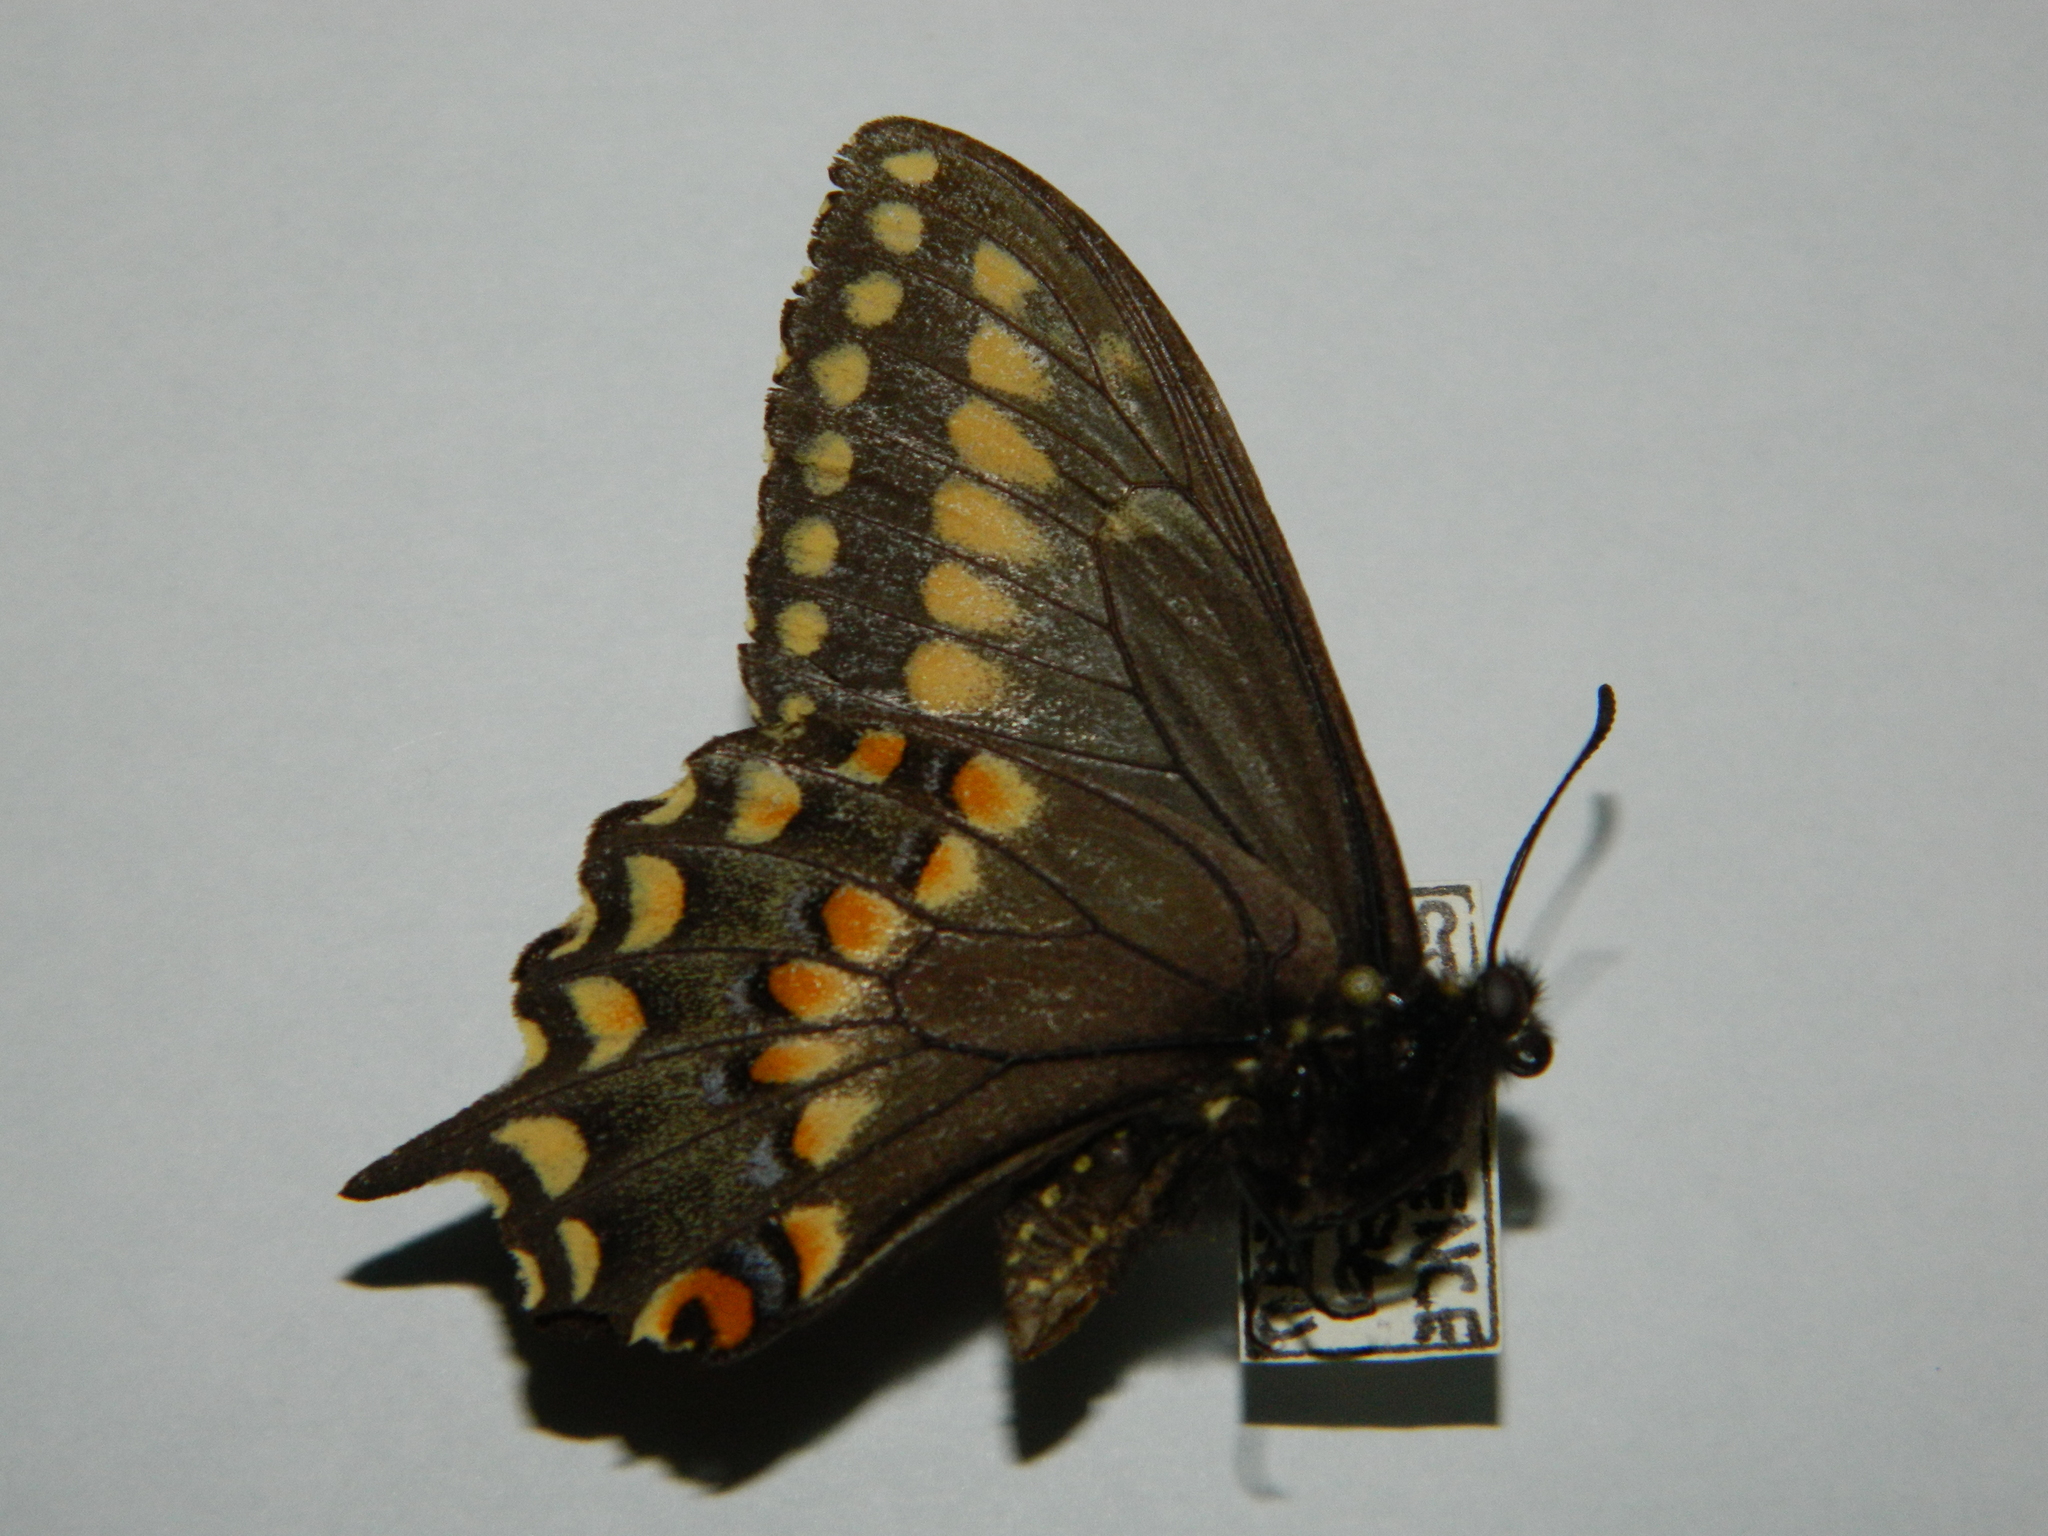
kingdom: Animalia
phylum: Arthropoda
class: Insecta
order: Lepidoptera
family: Papilionidae
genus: Papilio
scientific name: Papilio brevicauda
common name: Short tailed swallowtail
